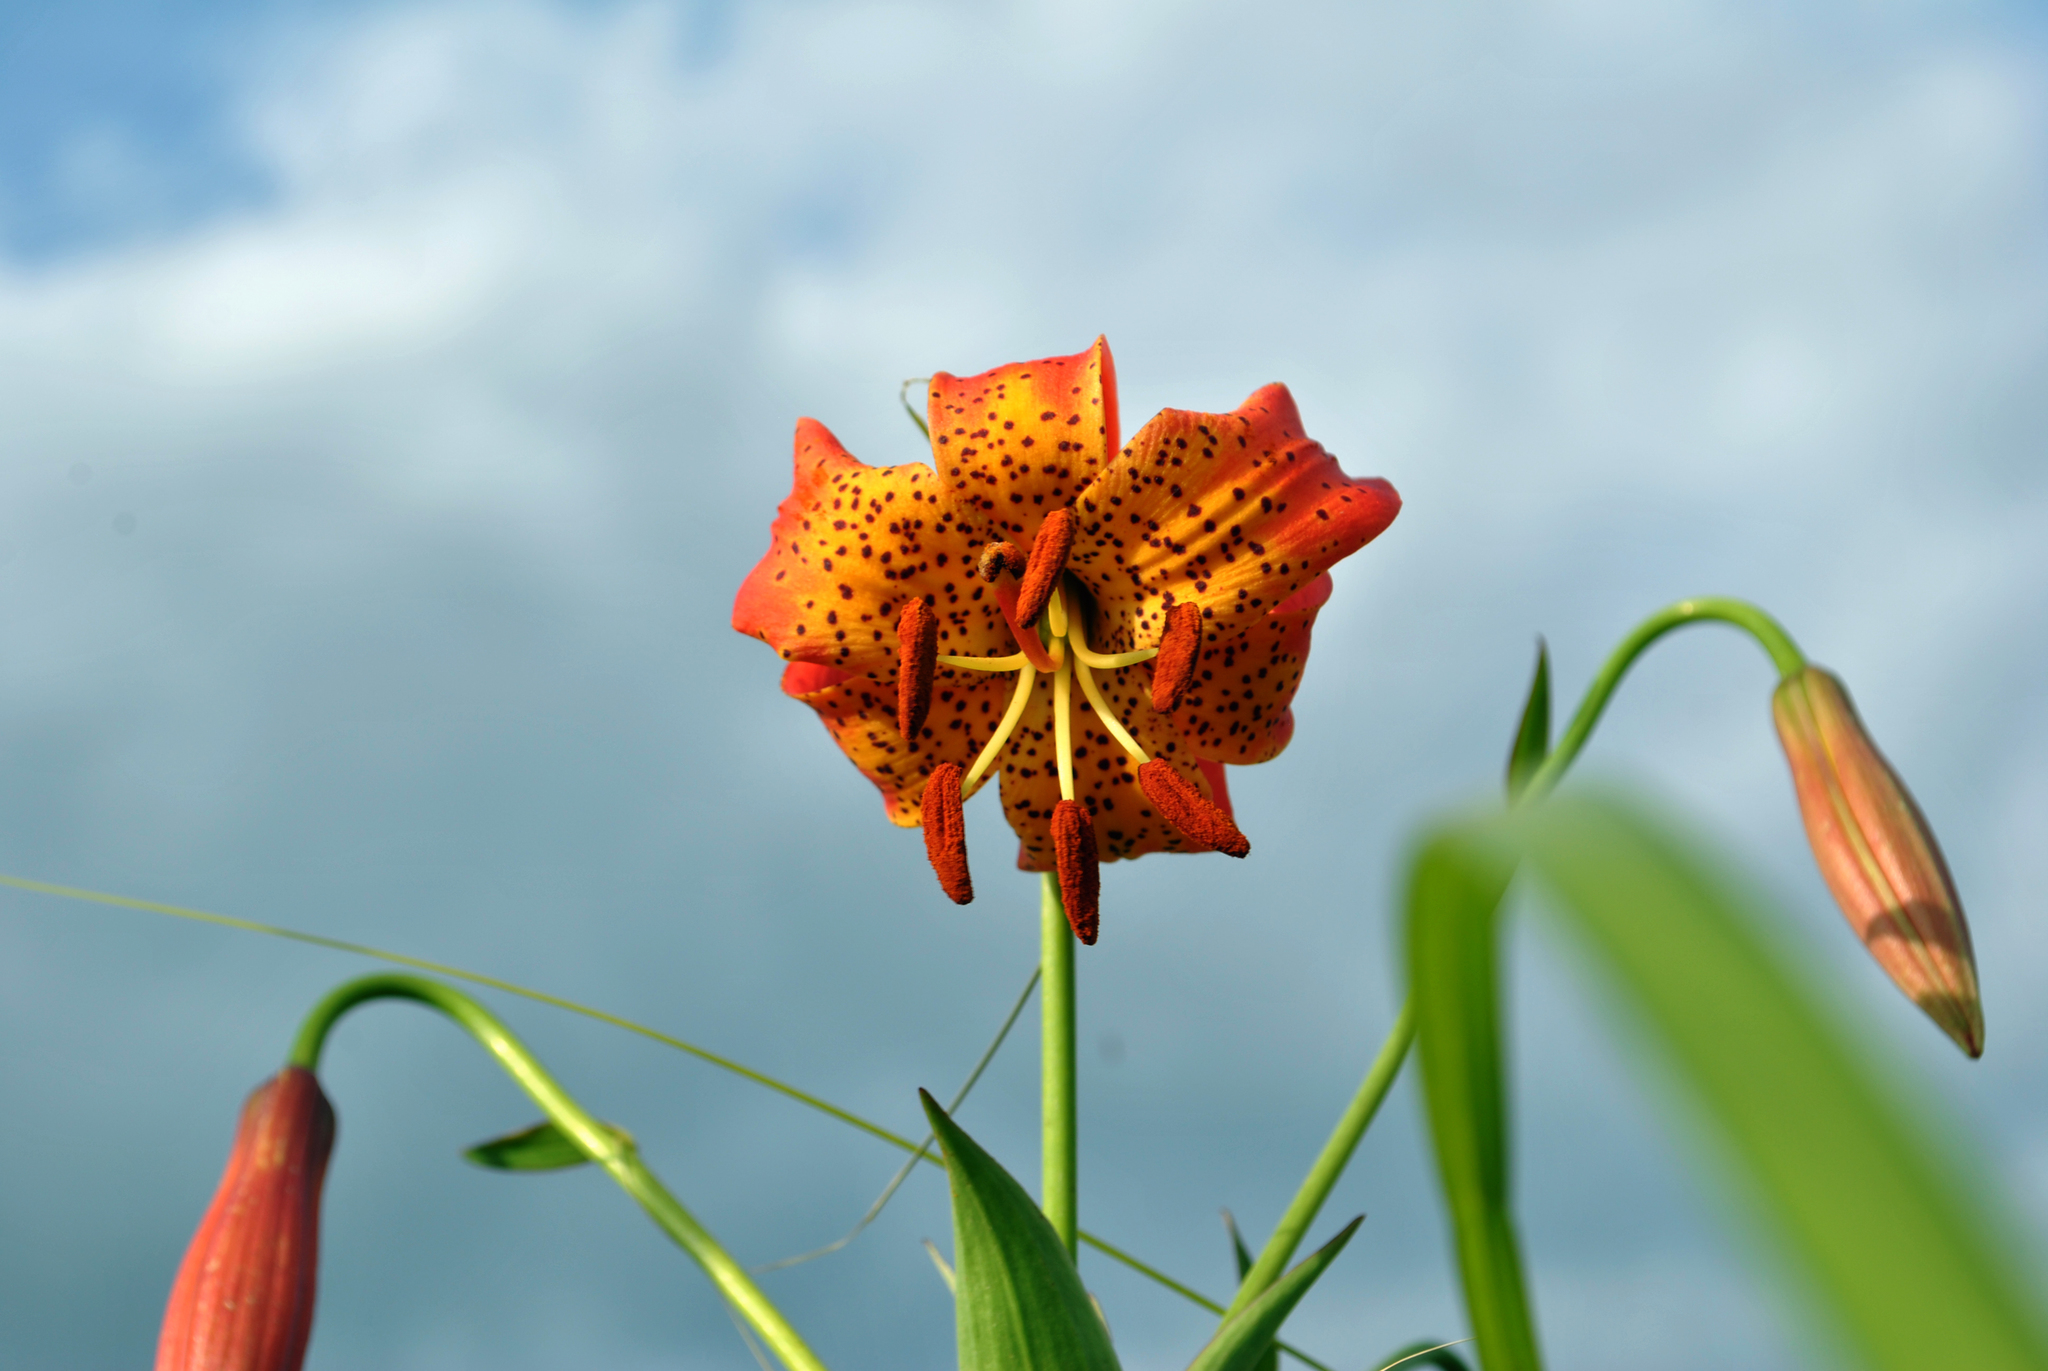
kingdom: Plantae
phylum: Tracheophyta
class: Liliopsida
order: Liliales
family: Liliaceae
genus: Lilium
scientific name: Lilium michiganense
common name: Michigan lily
